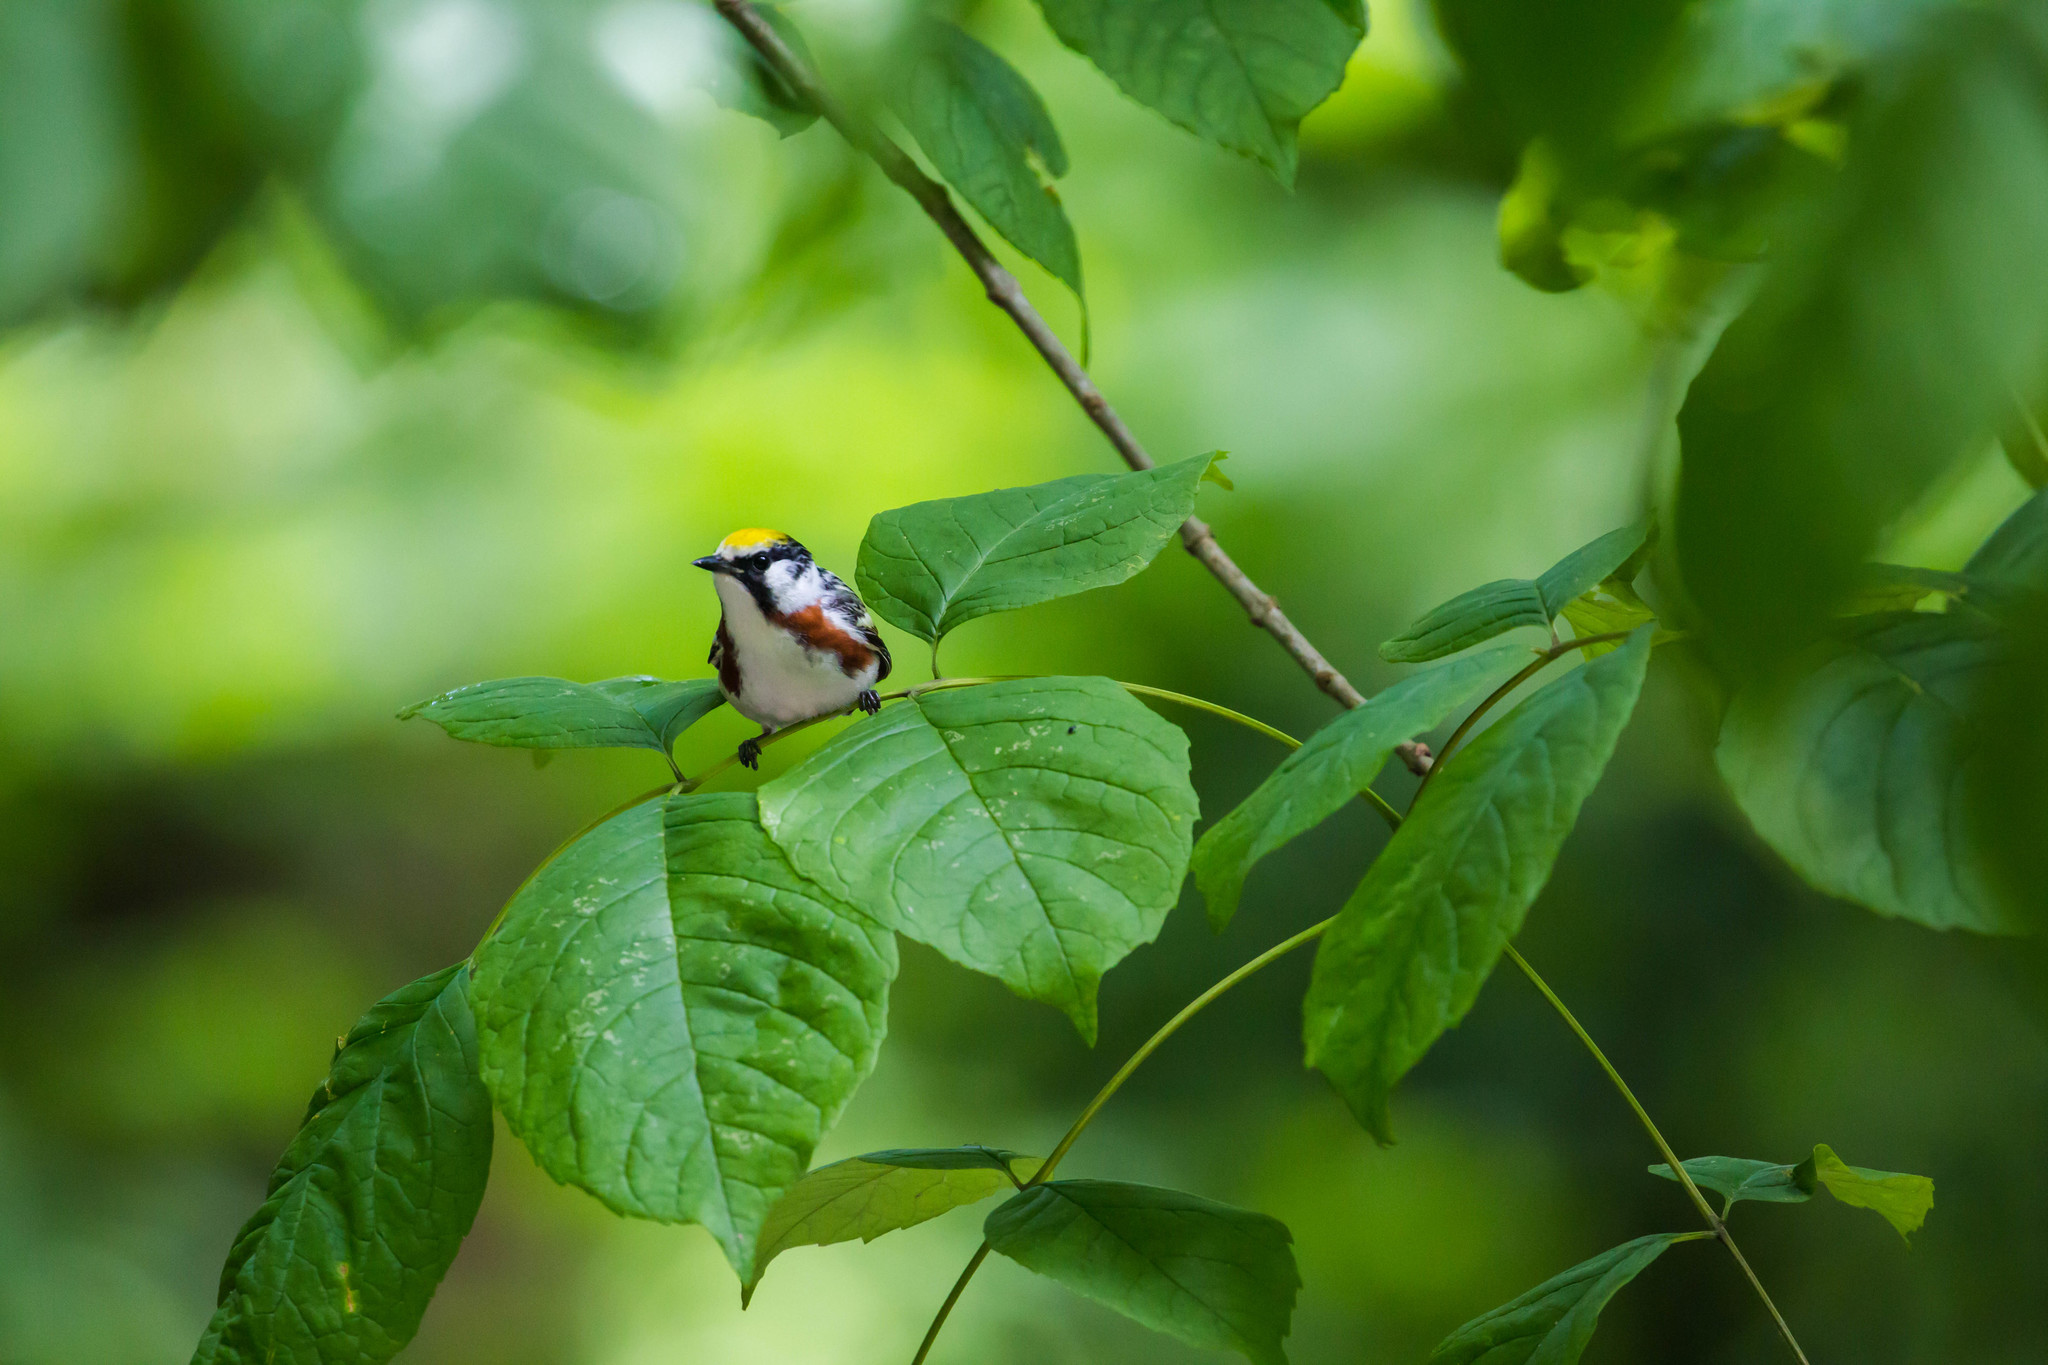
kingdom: Animalia
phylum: Chordata
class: Aves
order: Passeriformes
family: Parulidae
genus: Setophaga
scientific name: Setophaga pensylvanica
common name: Chestnut-sided warbler
